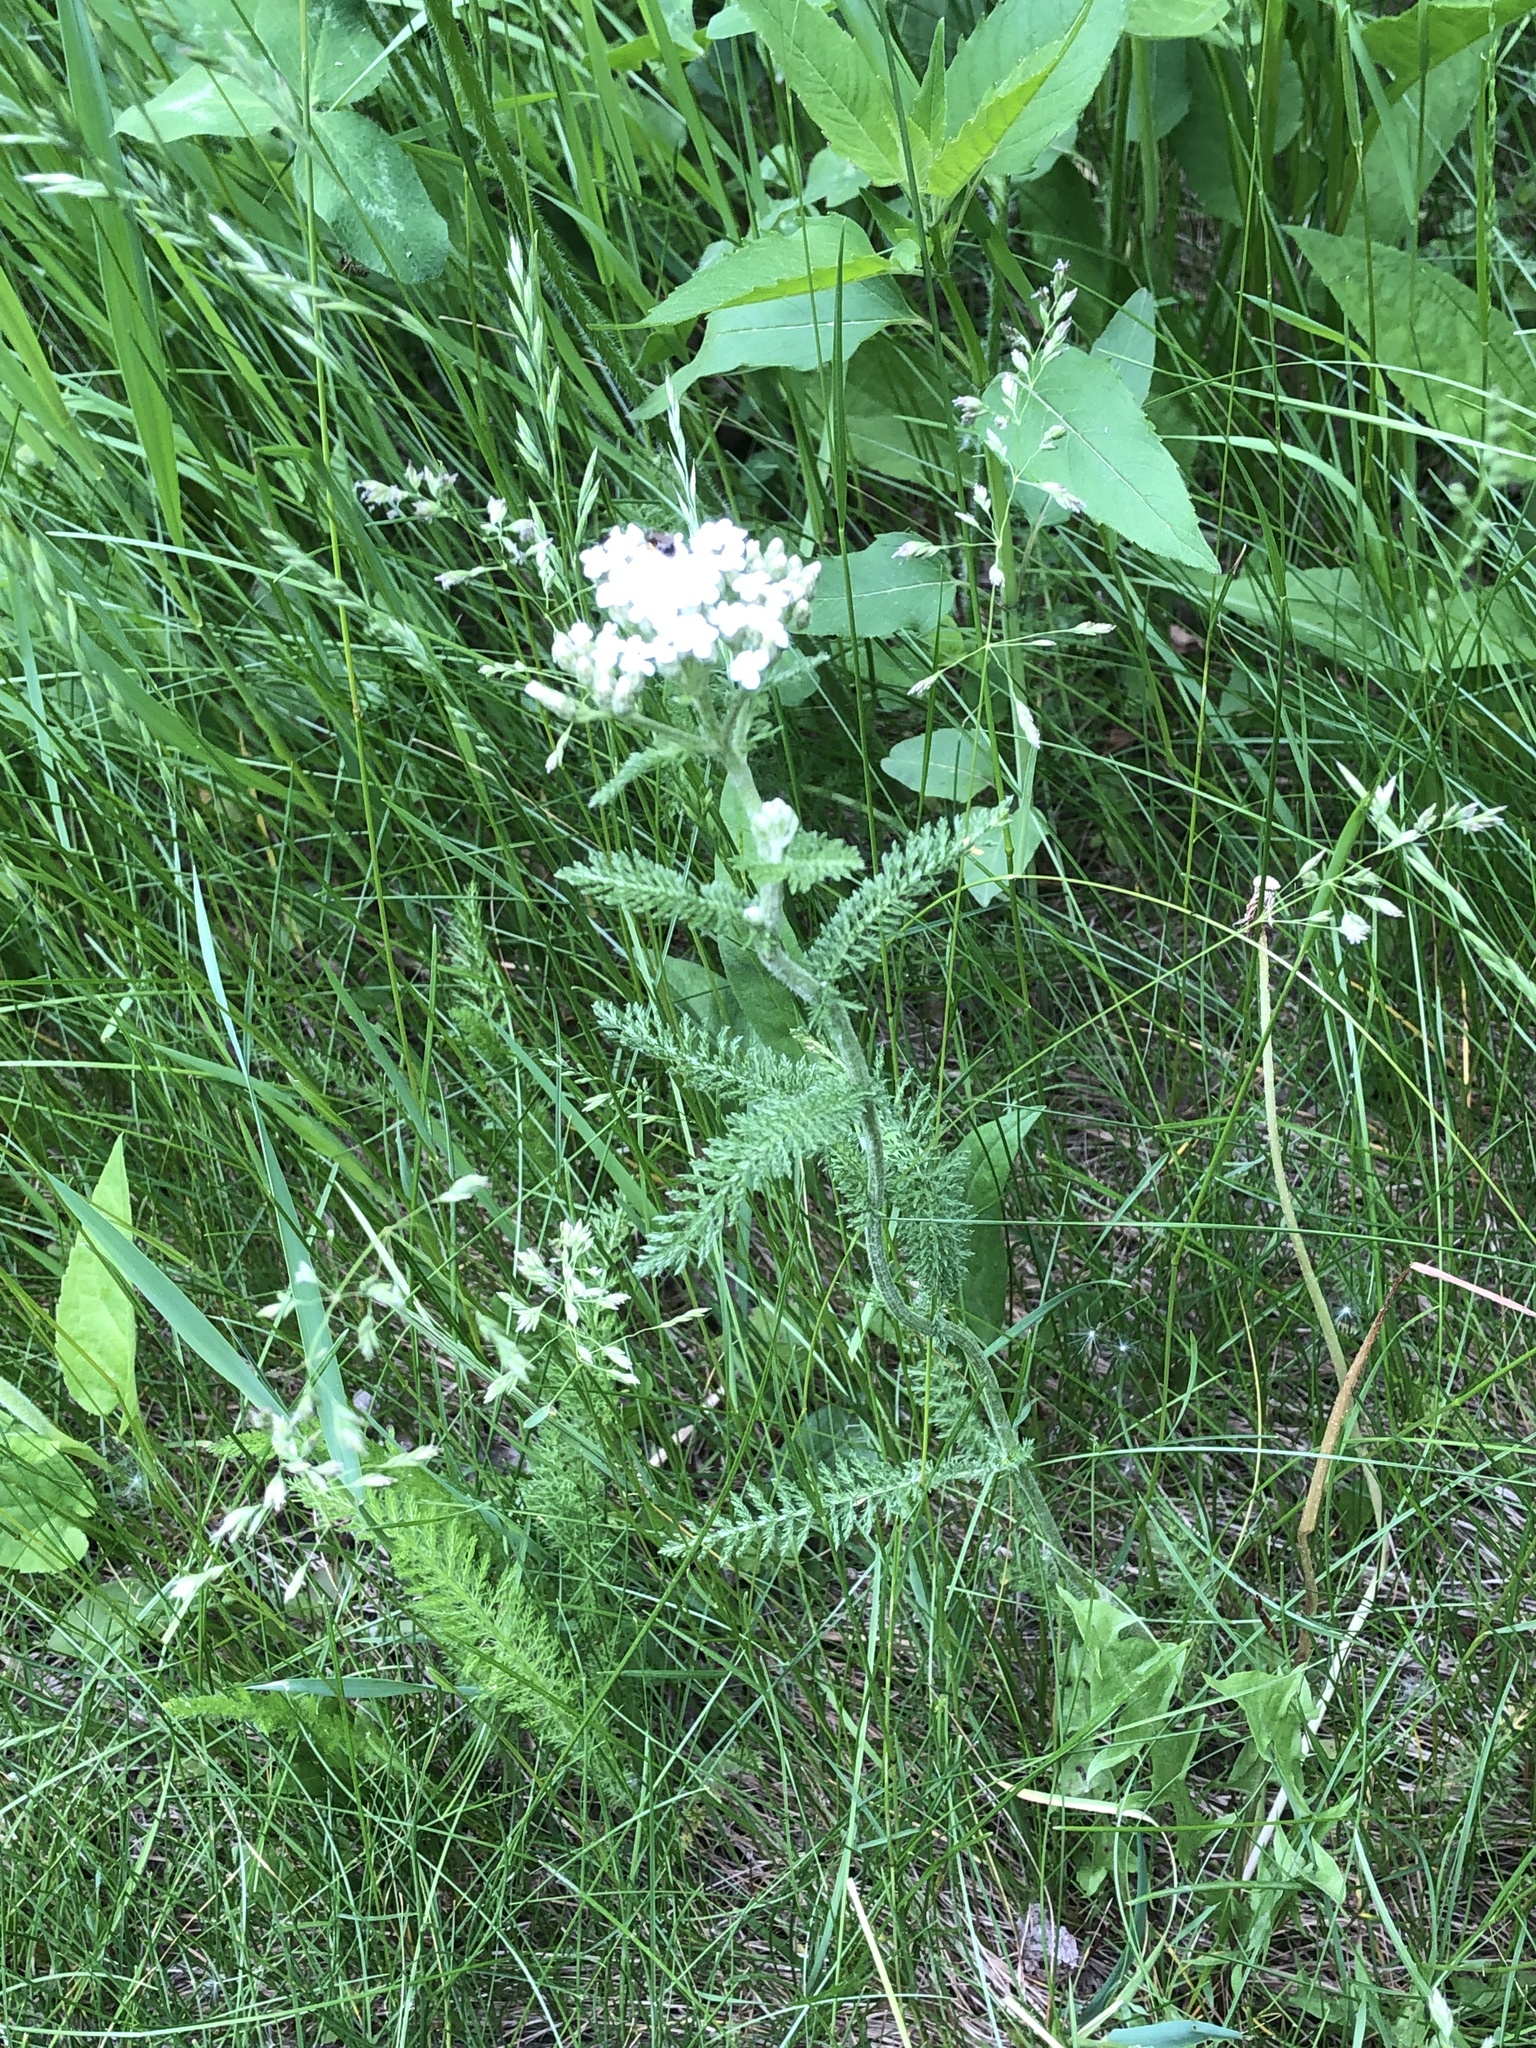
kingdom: Plantae
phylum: Tracheophyta
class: Magnoliopsida
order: Asterales
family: Asteraceae
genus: Achillea
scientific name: Achillea millefolium
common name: Yarrow
